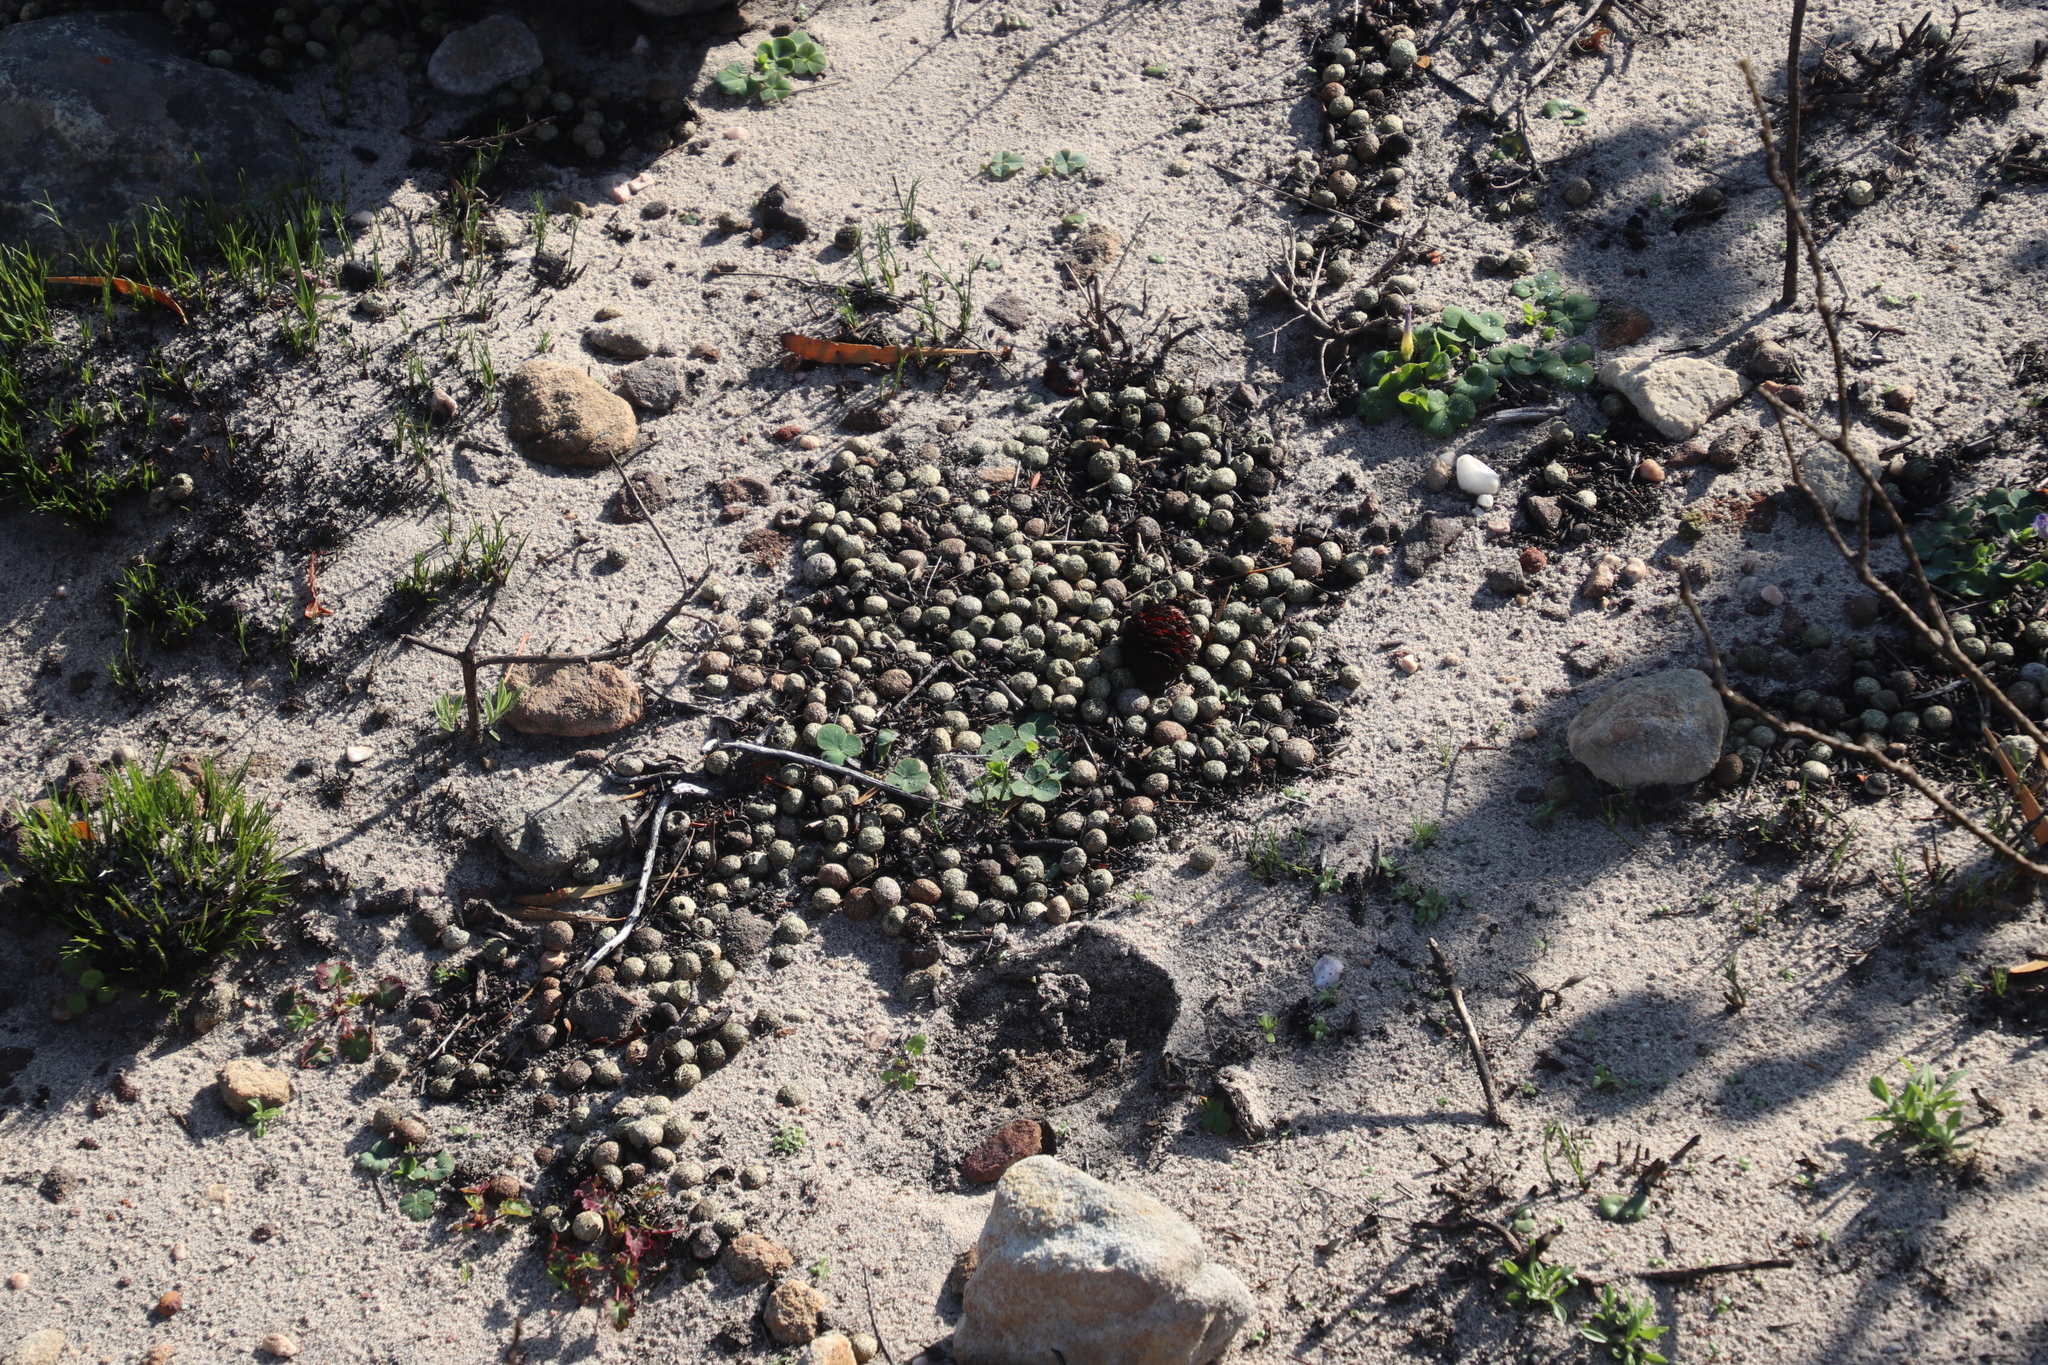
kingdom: Animalia
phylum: Chordata
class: Mammalia
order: Lagomorpha
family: Leporidae
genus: Pronolagus
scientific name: Pronolagus saundersiae
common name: Hewitt's red rock hare
